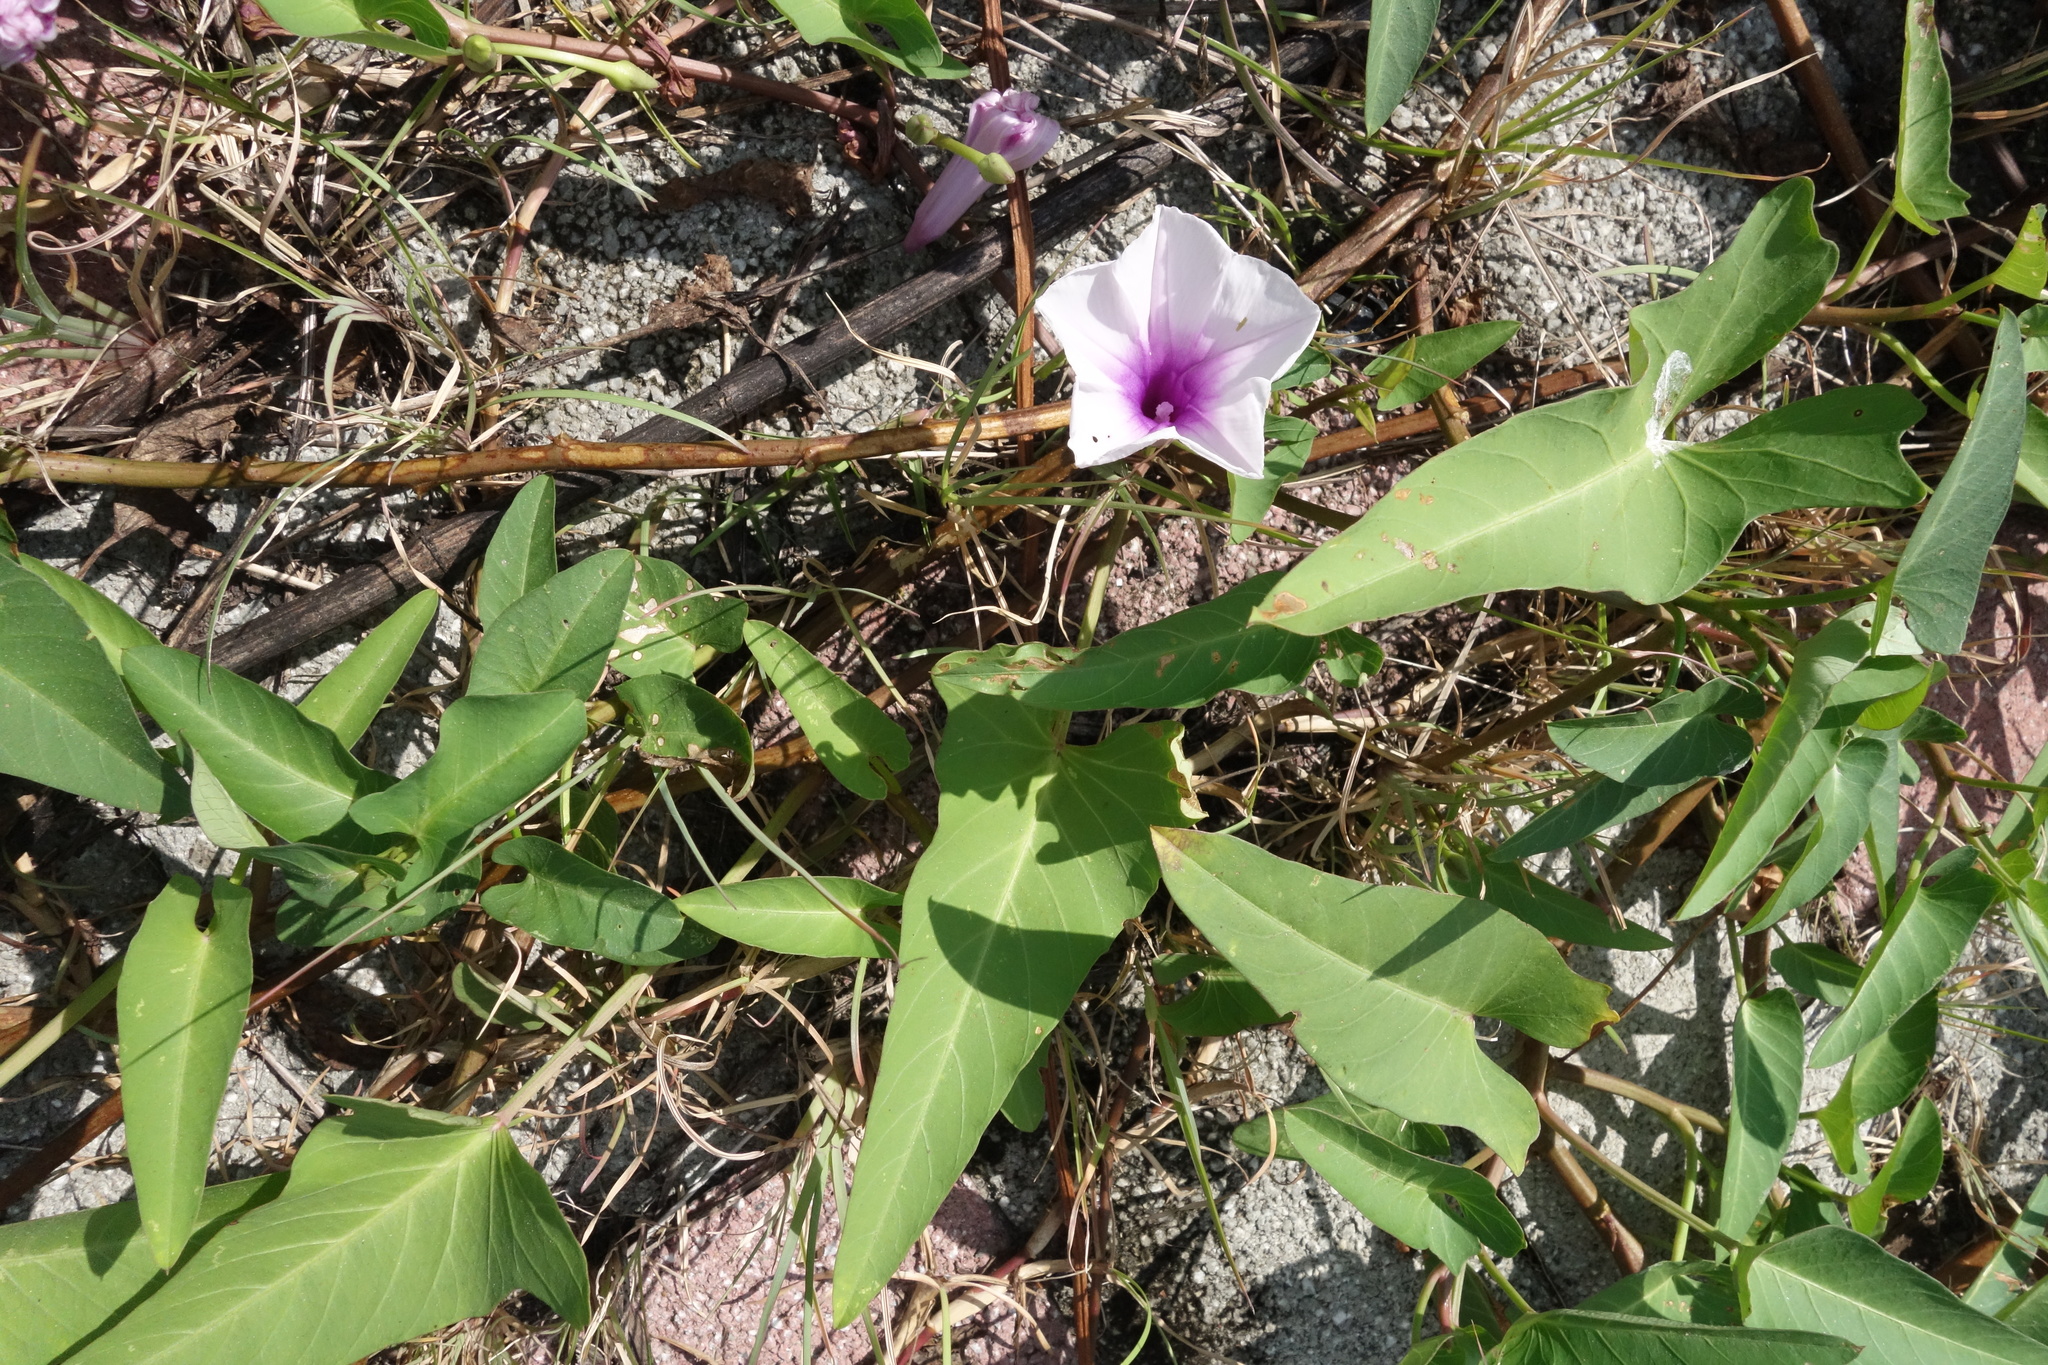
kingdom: Plantae
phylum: Tracheophyta
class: Magnoliopsida
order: Solanales
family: Convolvulaceae
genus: Ipomoea
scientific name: Ipomoea aquatica
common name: Swamp morning-glory
